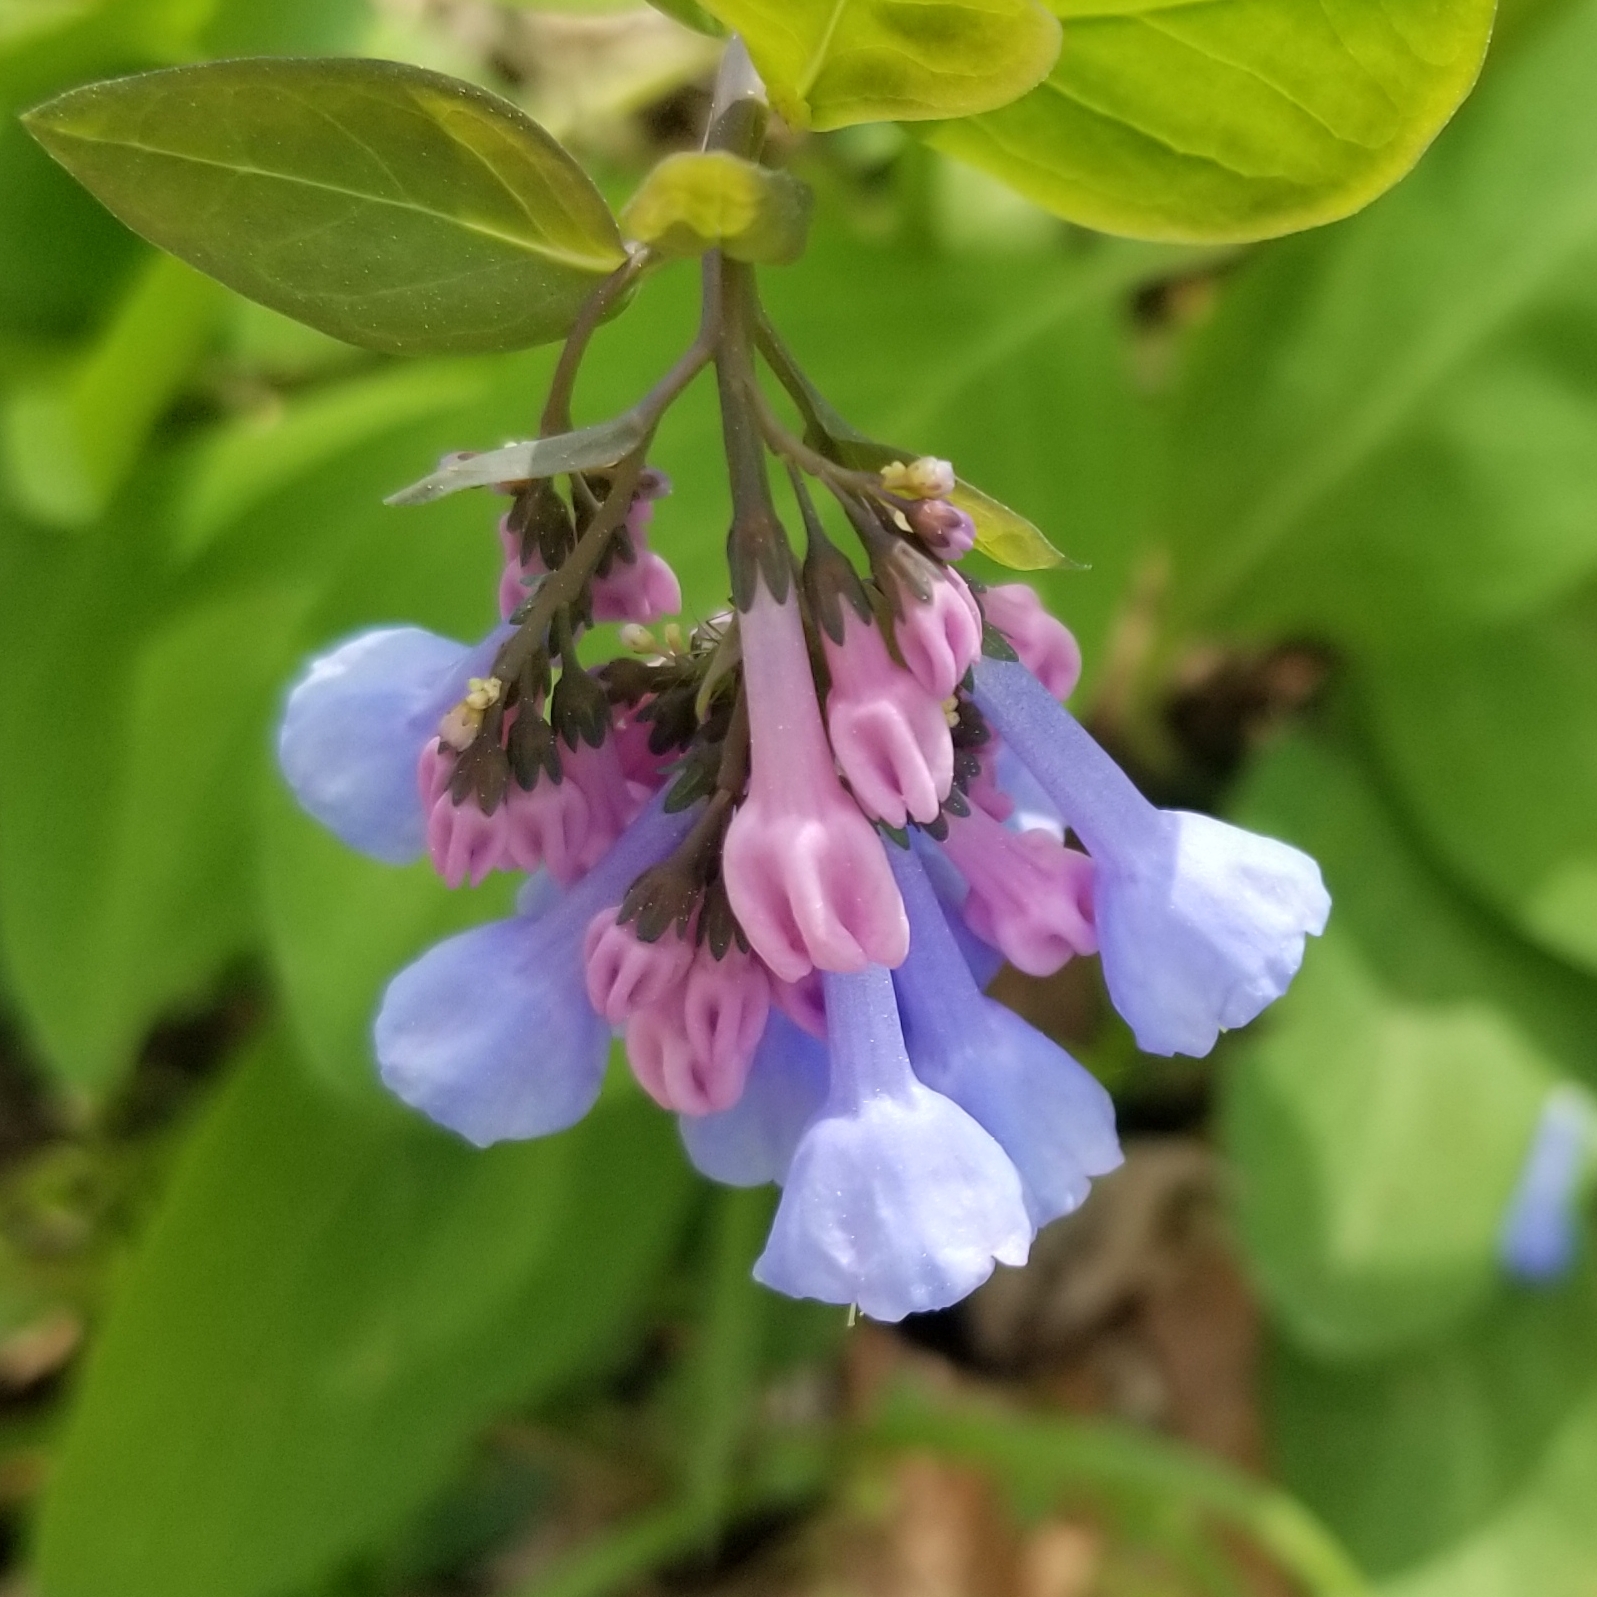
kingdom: Plantae
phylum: Tracheophyta
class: Magnoliopsida
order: Boraginales
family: Boraginaceae
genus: Mertensia
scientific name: Mertensia virginica
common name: Virginia bluebells
